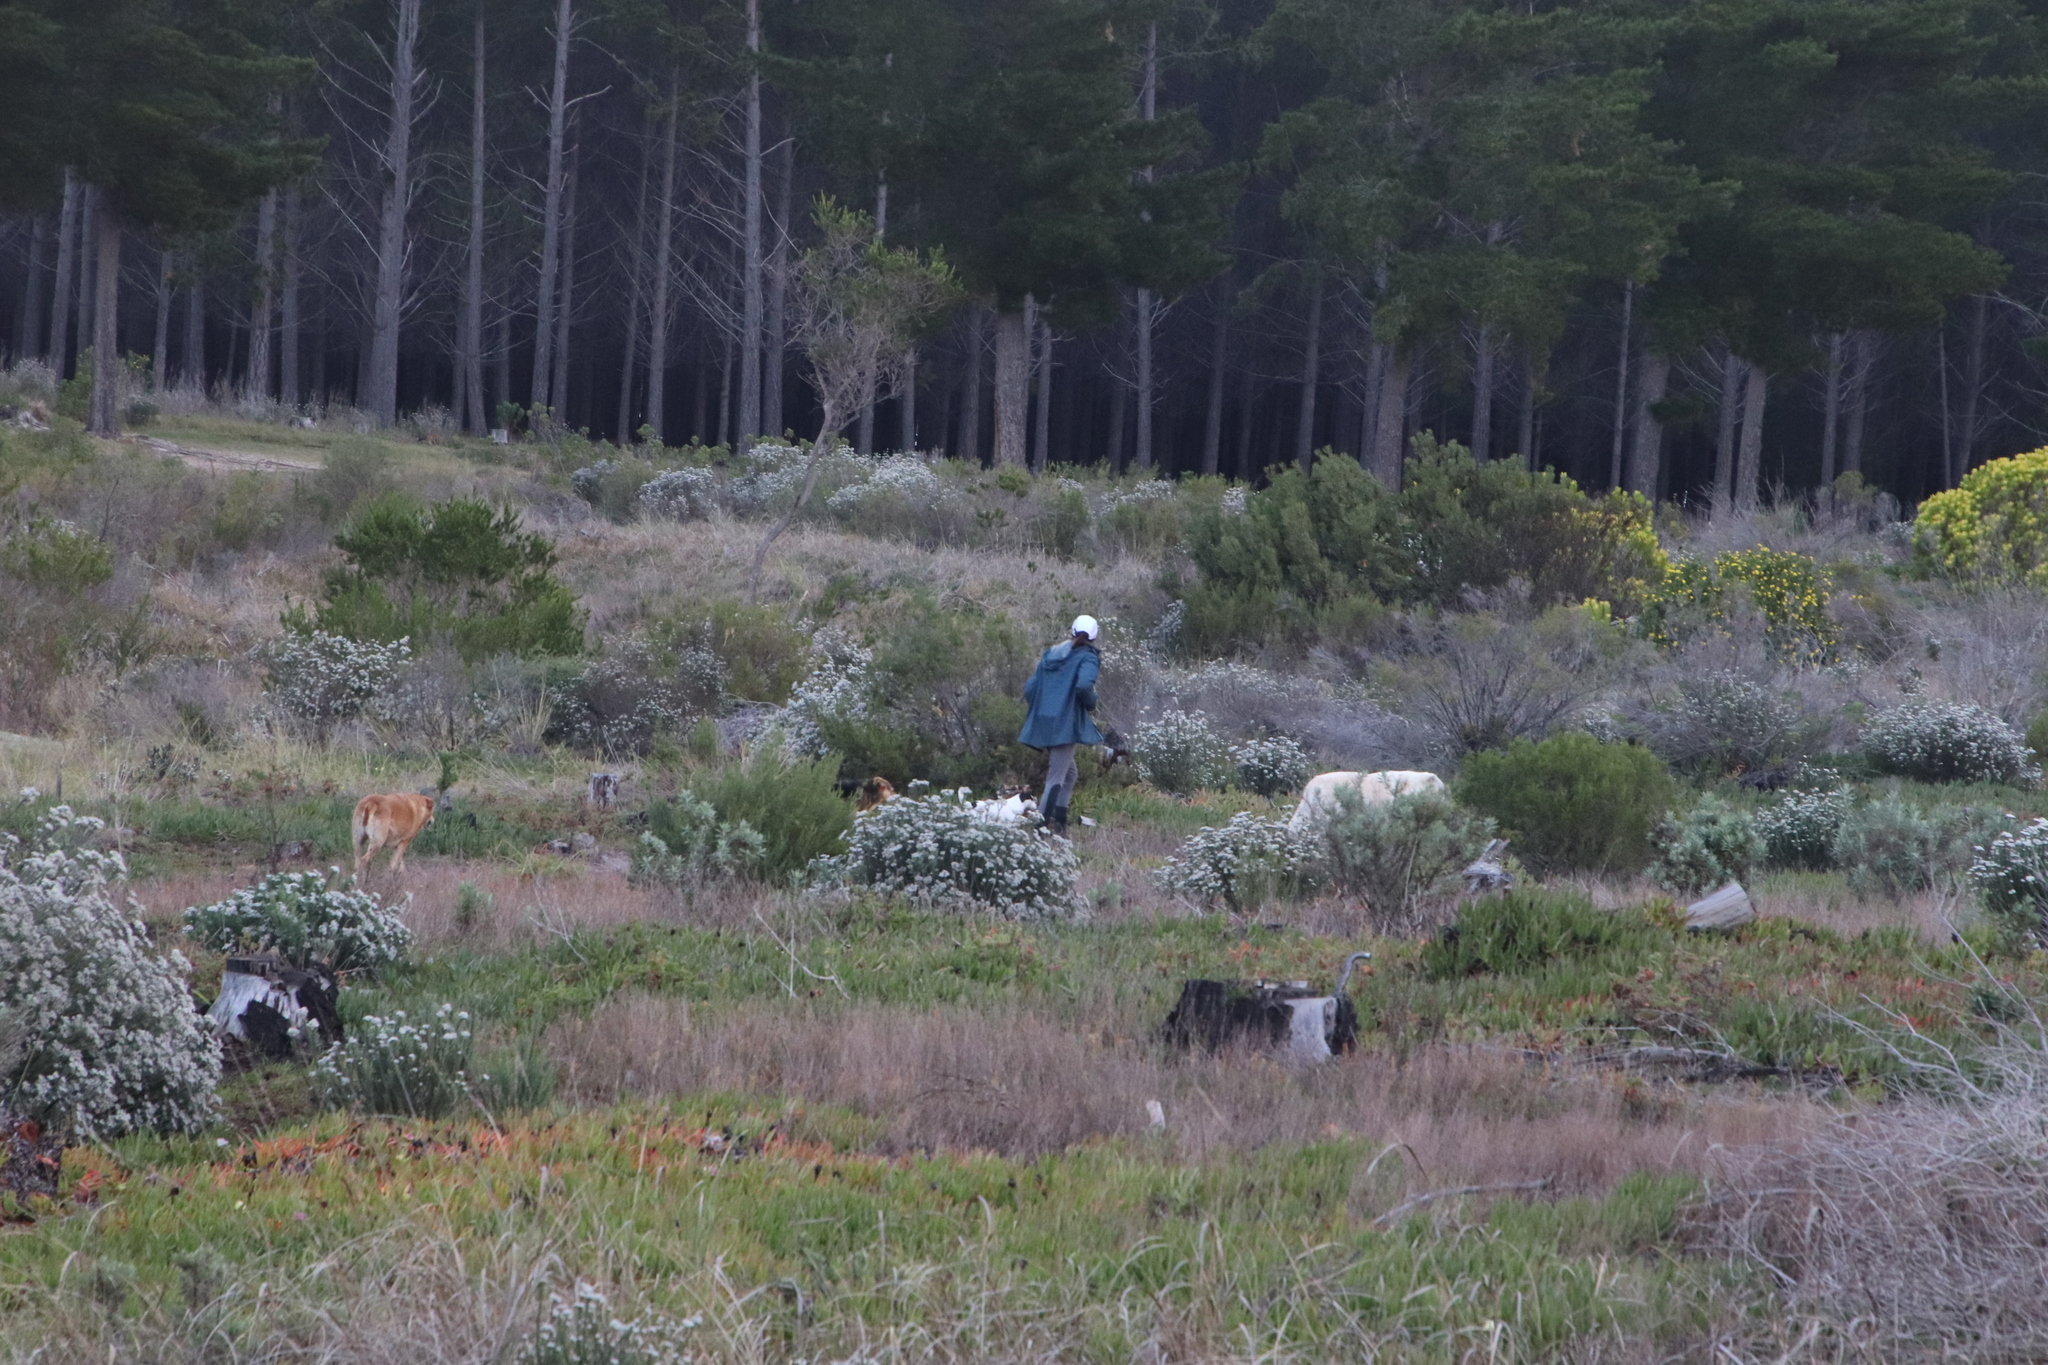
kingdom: Plantae
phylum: Tracheophyta
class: Magnoliopsida
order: Asterales
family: Asteraceae
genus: Metalasia
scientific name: Metalasia densa
